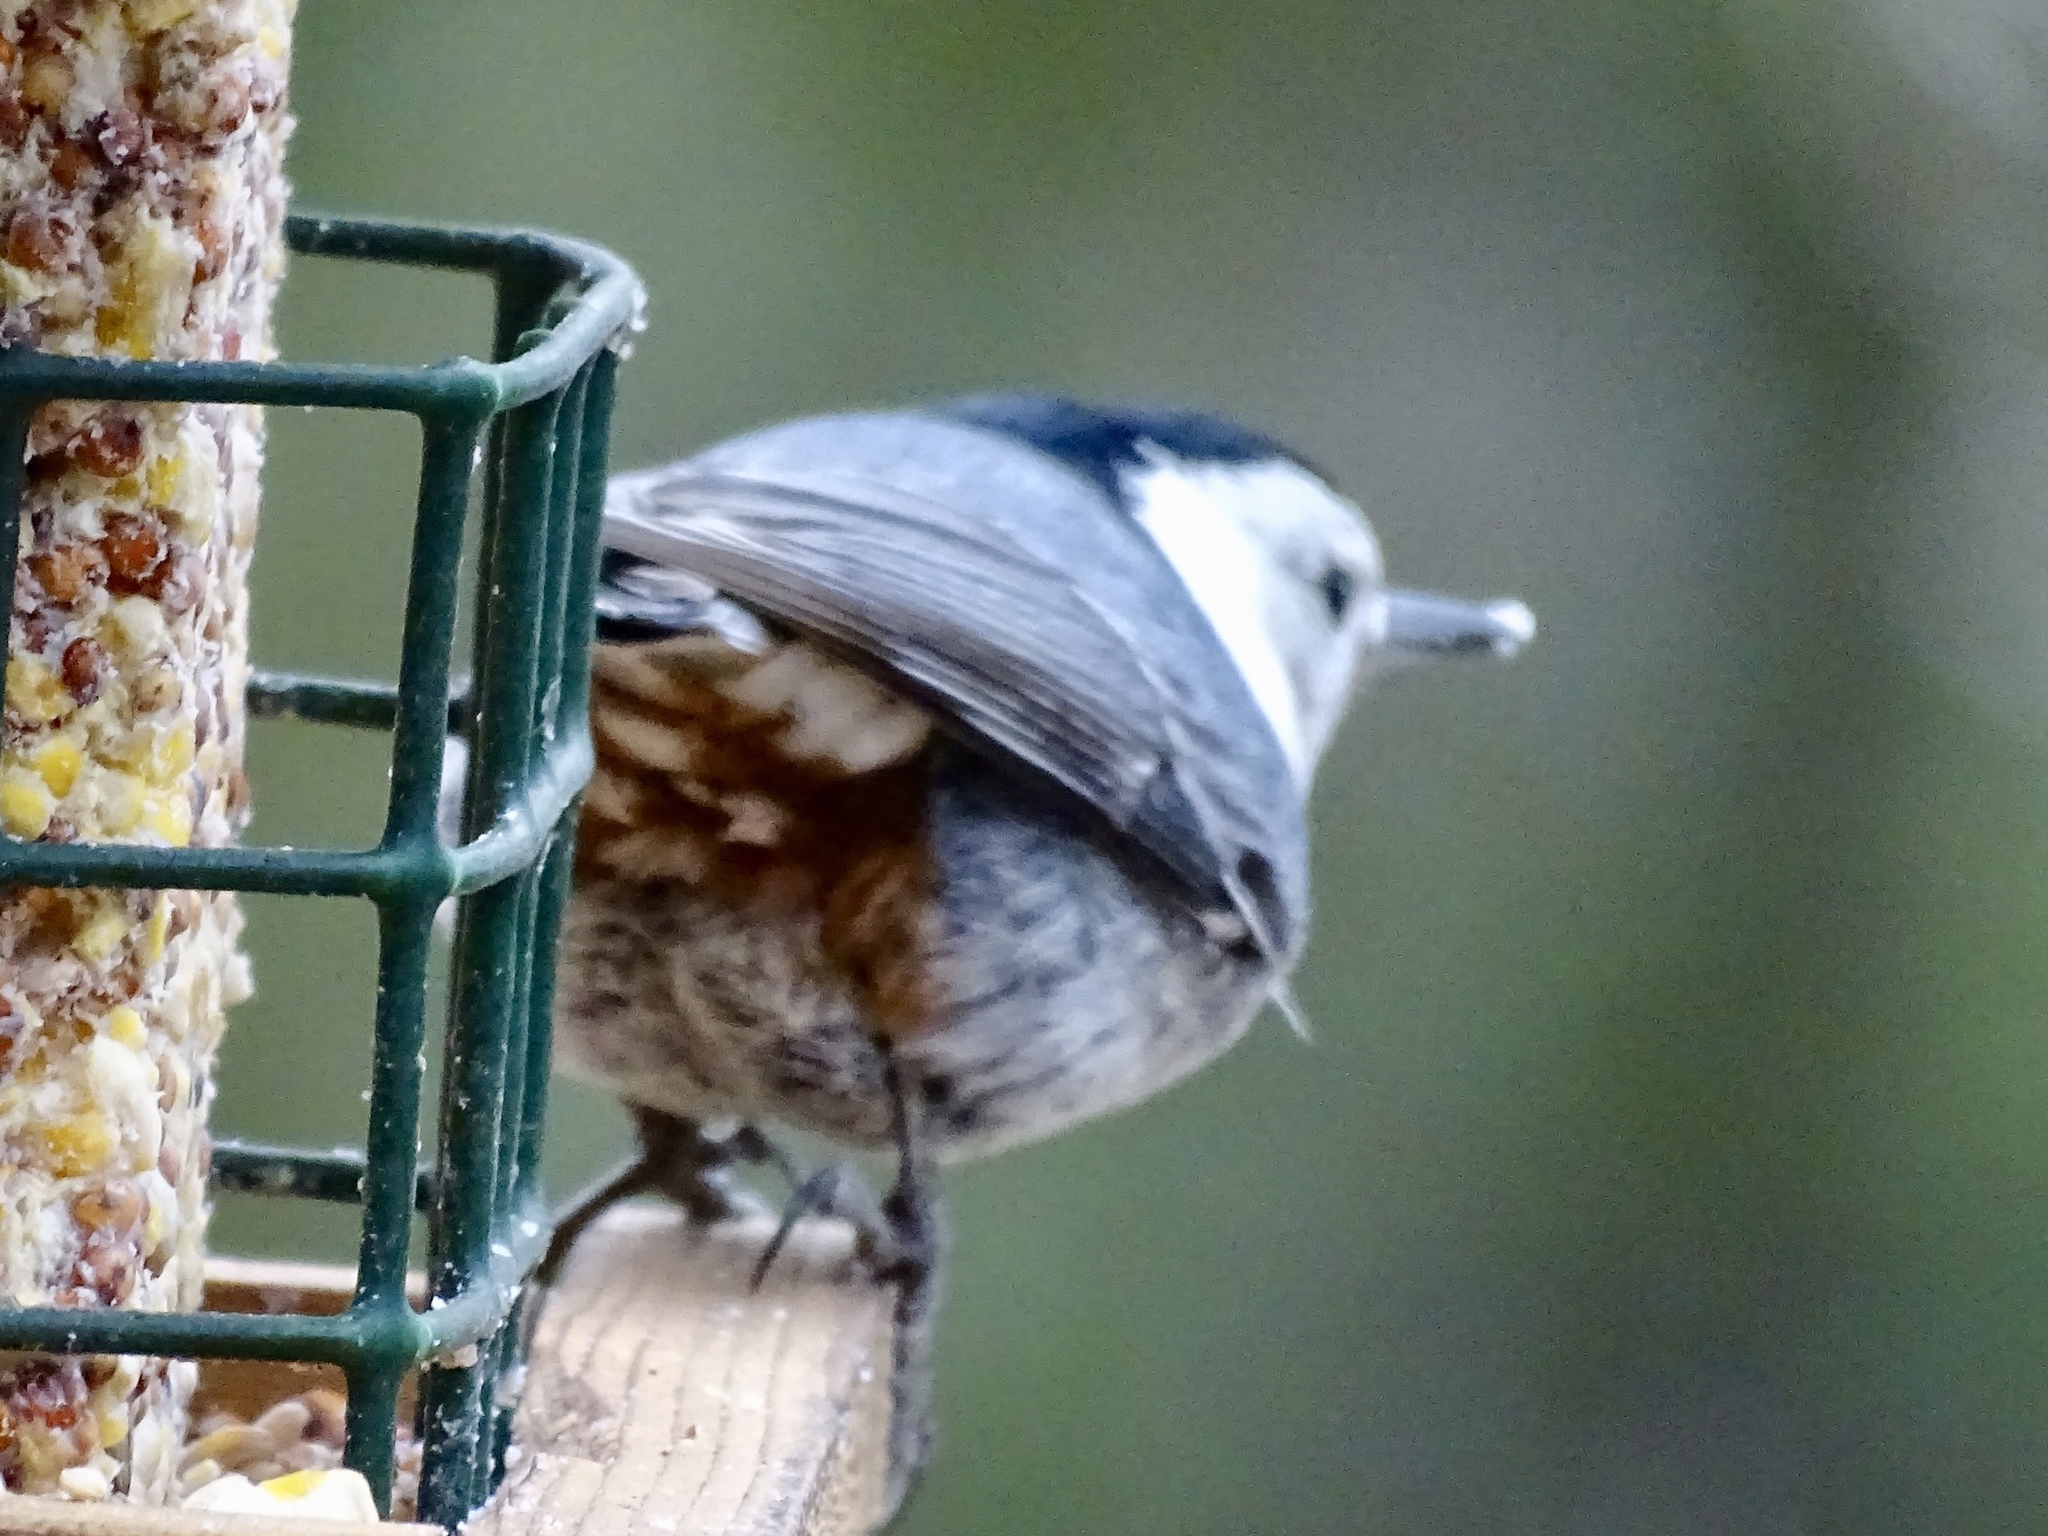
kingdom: Animalia
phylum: Chordata
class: Aves
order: Passeriformes
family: Sittidae
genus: Sitta
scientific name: Sitta carolinensis
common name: White-breasted nuthatch
